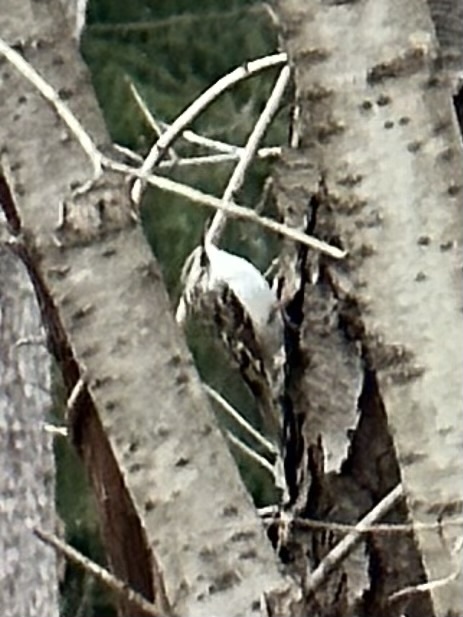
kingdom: Animalia
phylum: Chordata
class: Aves
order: Passeriformes
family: Certhiidae
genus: Certhia
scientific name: Certhia americana
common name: Brown creeper
